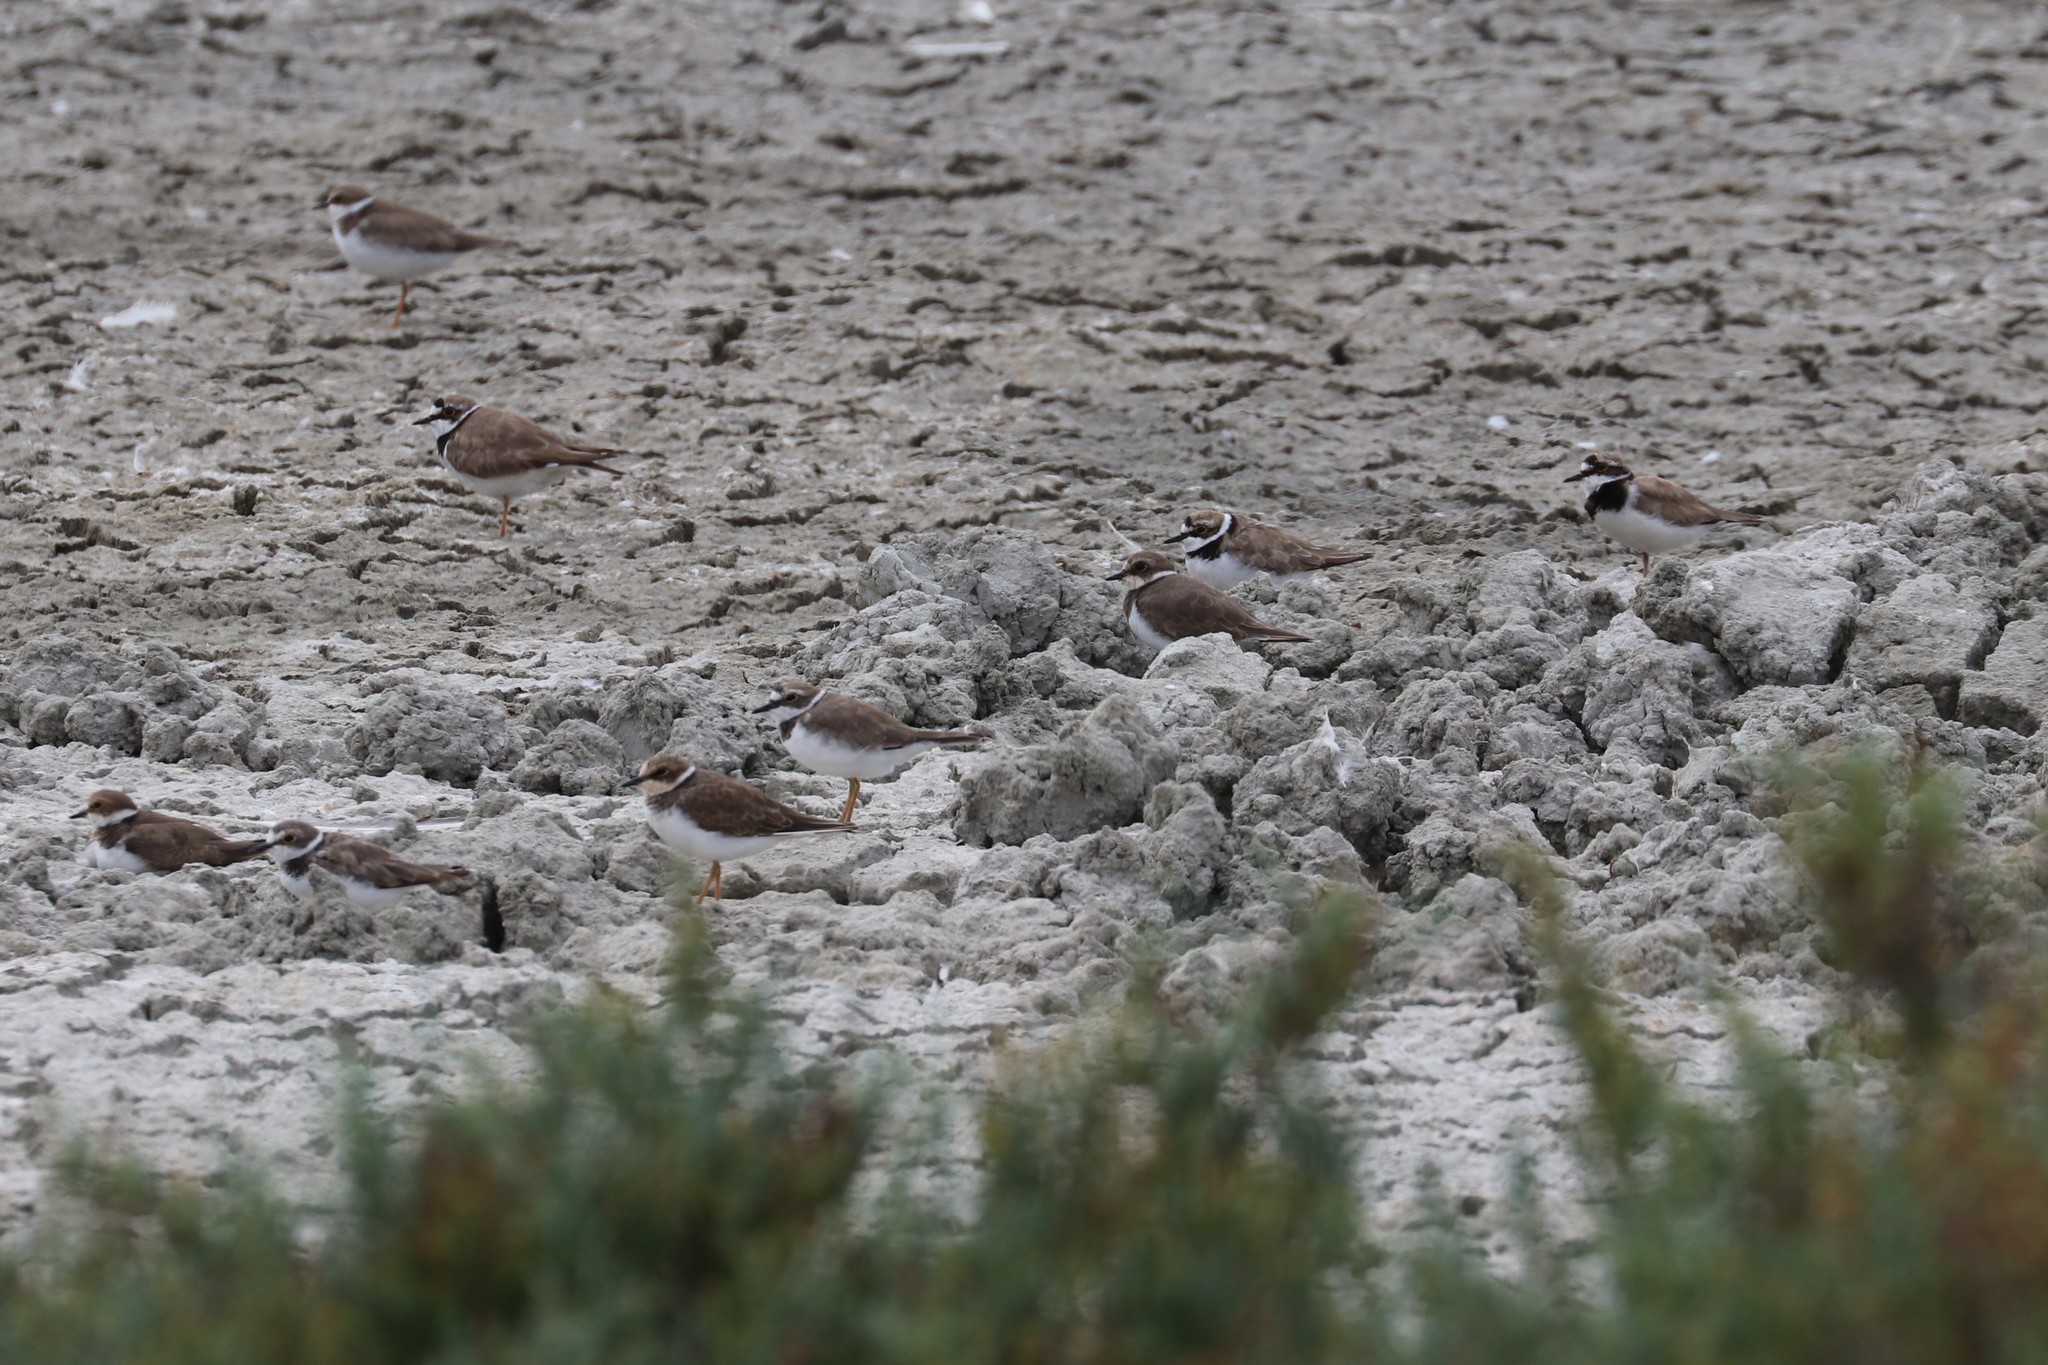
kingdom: Animalia
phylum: Chordata
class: Aves
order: Charadriiformes
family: Charadriidae
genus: Charadrius
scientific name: Charadrius dubius
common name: Little ringed plover
